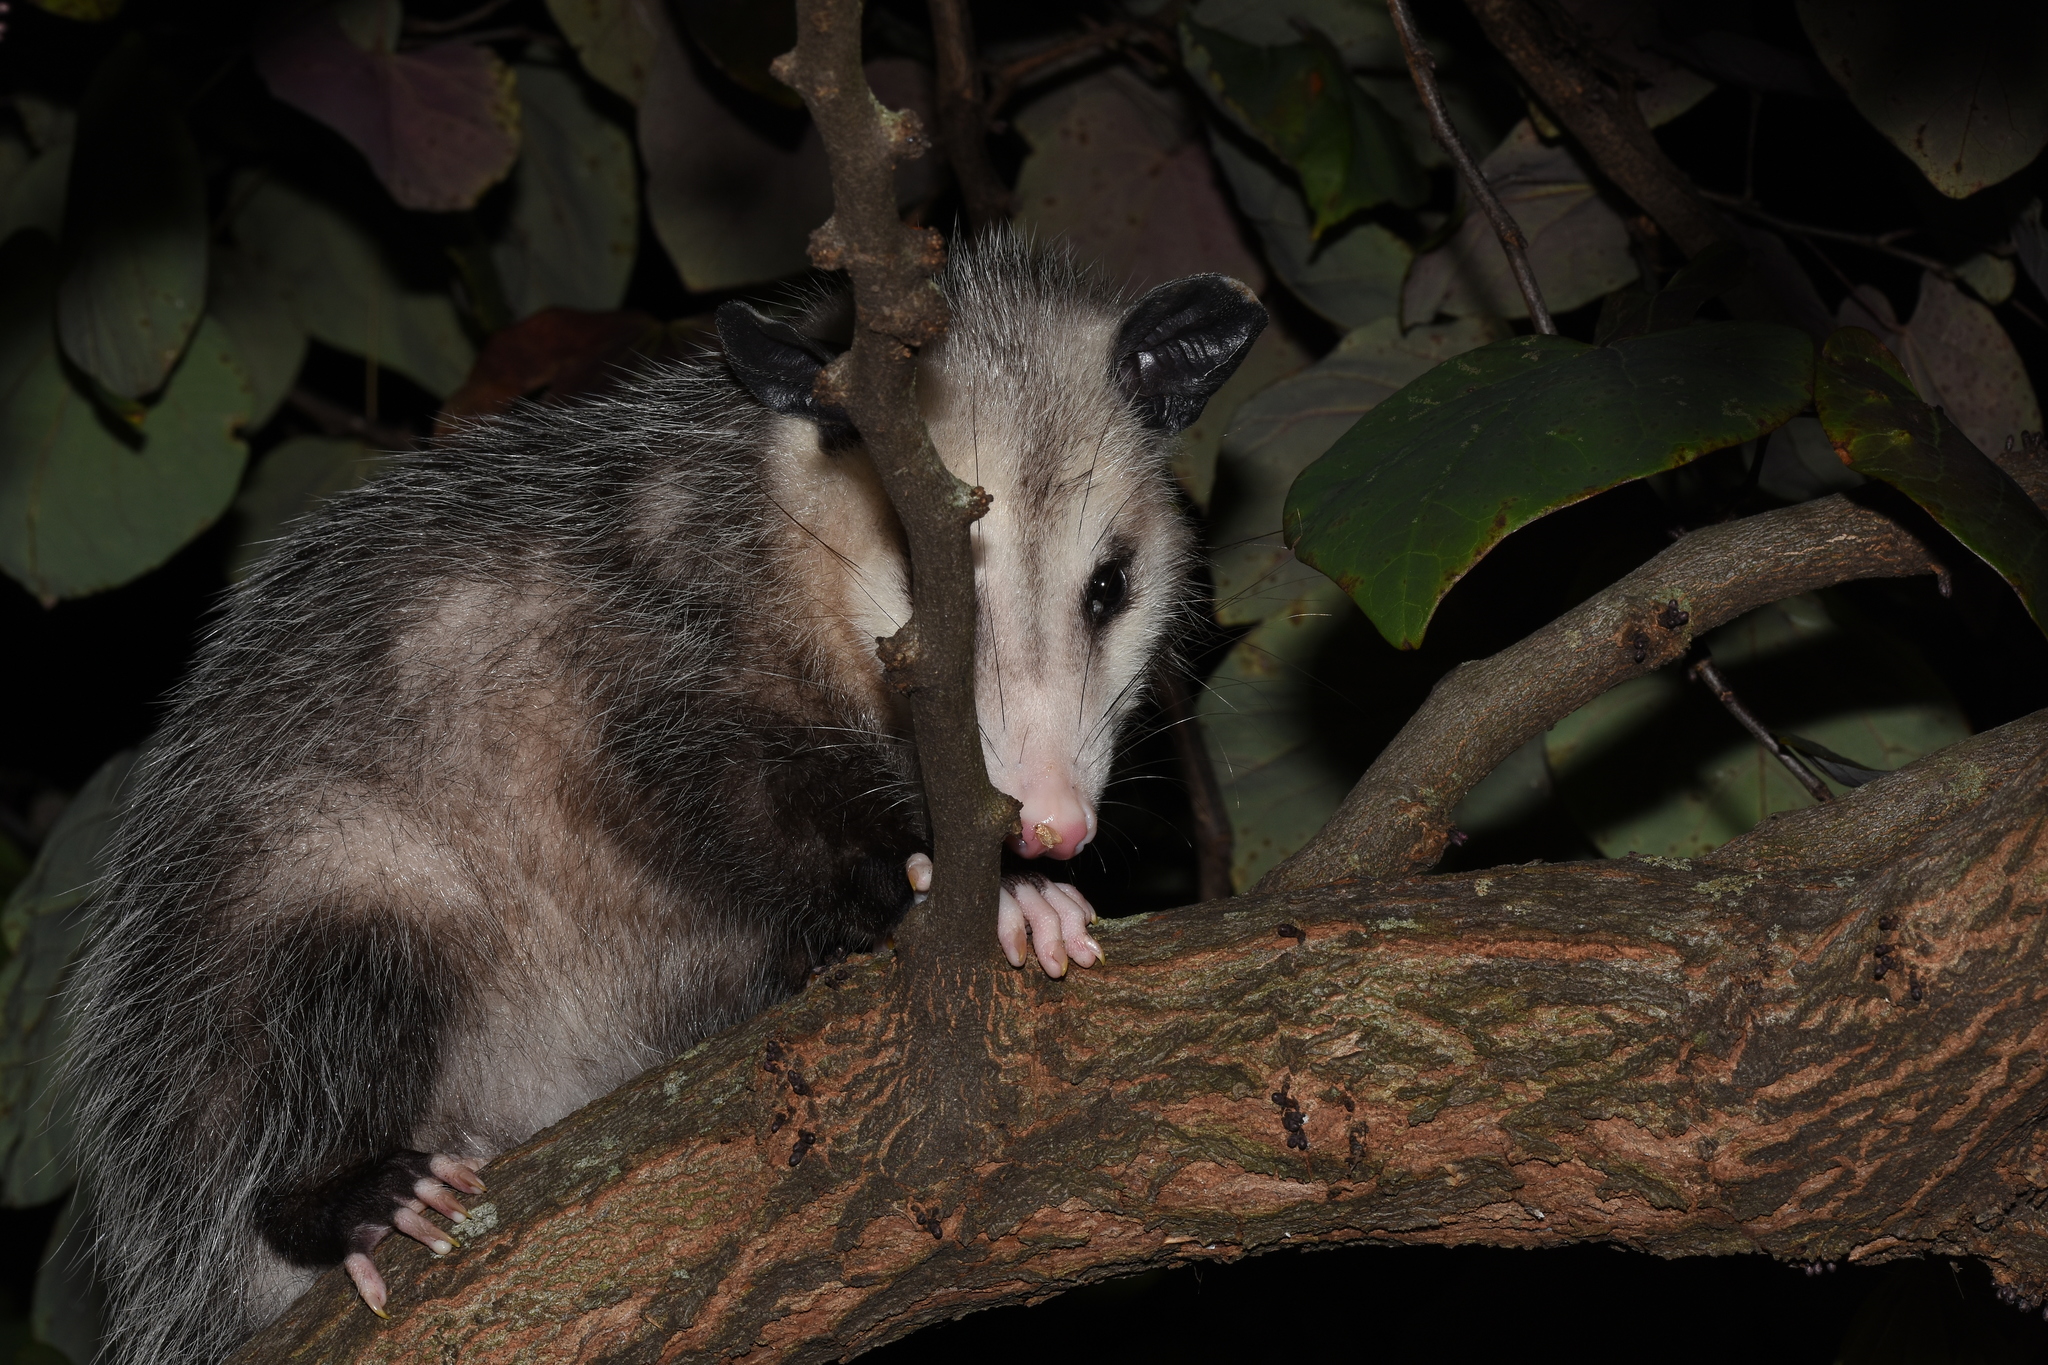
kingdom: Animalia
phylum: Chordata
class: Mammalia
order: Didelphimorphia
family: Didelphidae
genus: Didelphis
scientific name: Didelphis virginiana
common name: Virginia opossum
